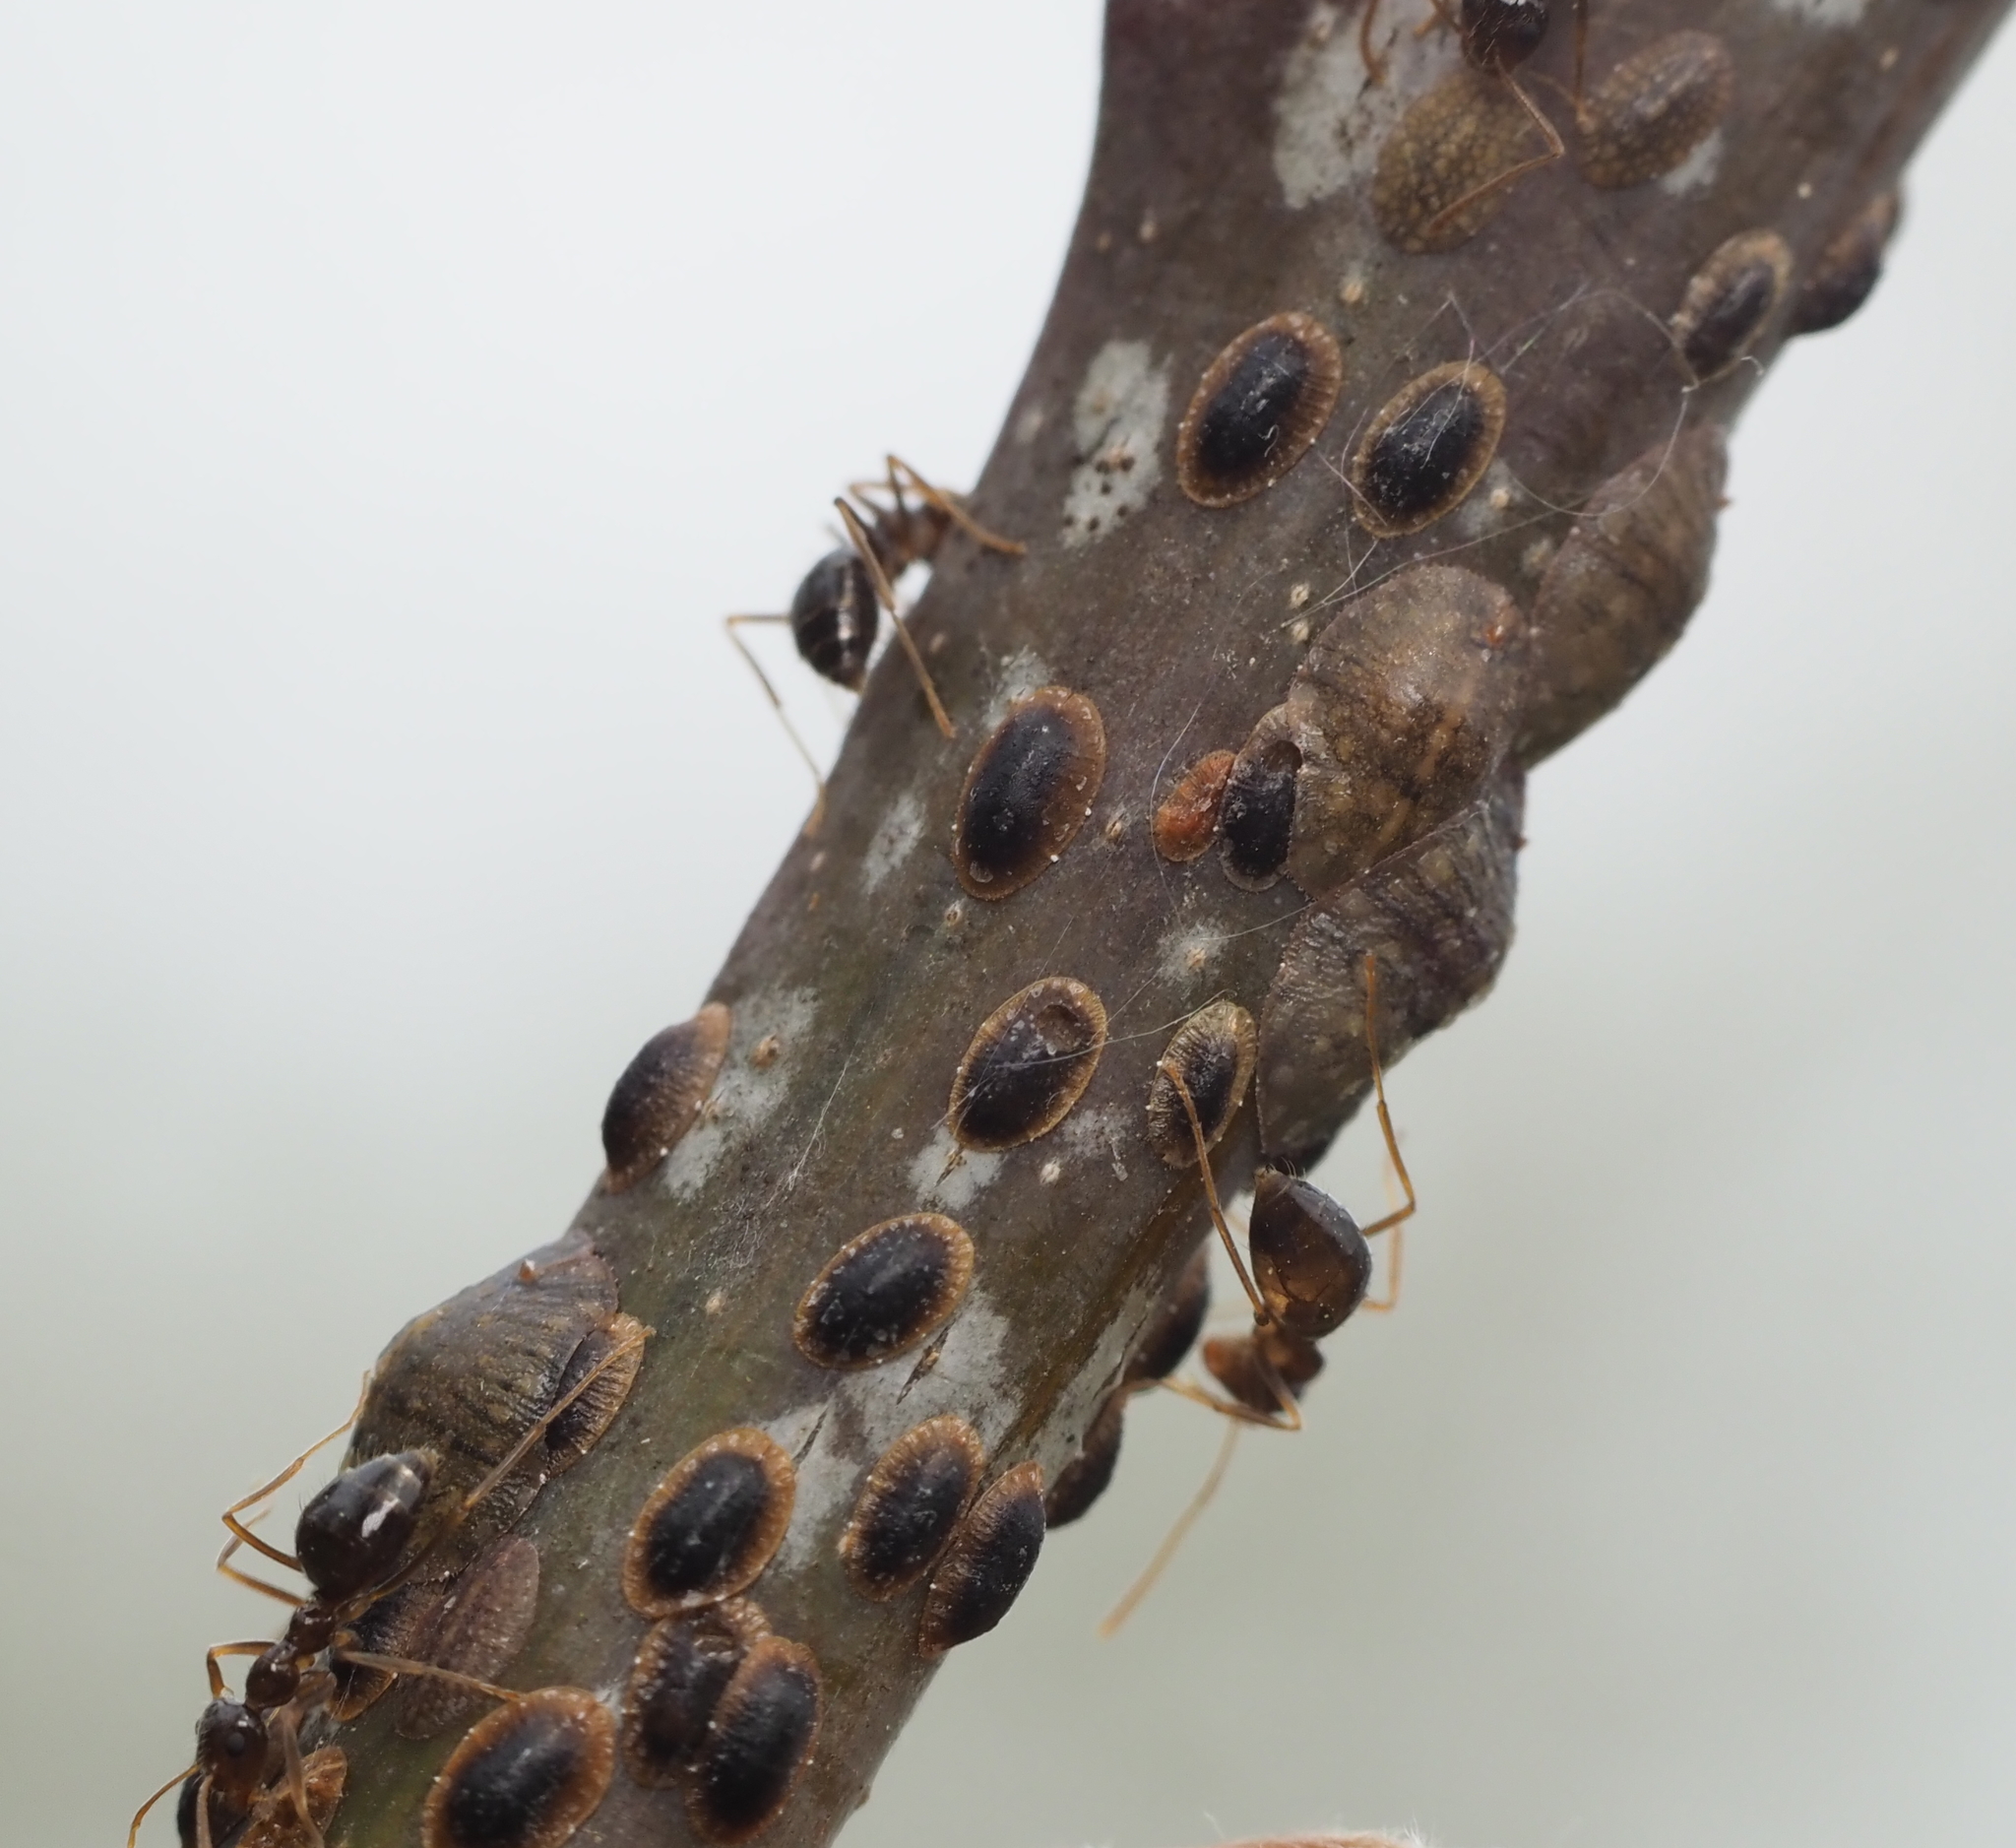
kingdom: Animalia
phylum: Arthropoda
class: Insecta
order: Hymenoptera
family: Formicidae
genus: Prenolepis
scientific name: Prenolepis imparis
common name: Small honey ant
